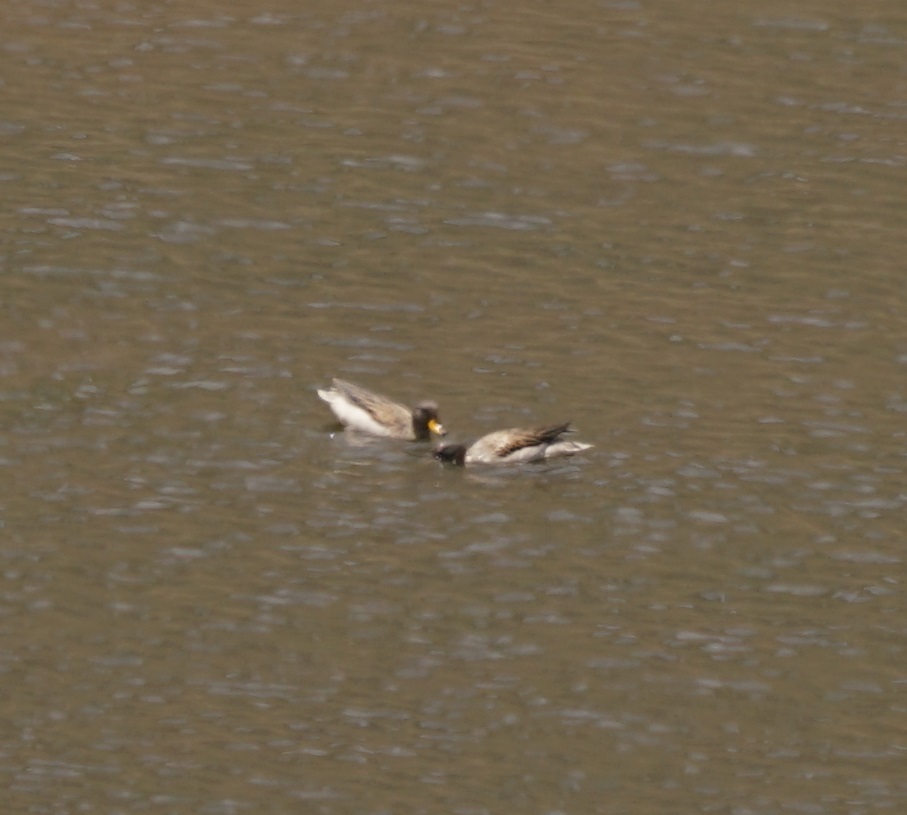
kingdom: Animalia
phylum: Chordata
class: Aves
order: Anseriformes
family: Anatidae
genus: Anas
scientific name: Anas flavirostris
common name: Yellow-billed teal
